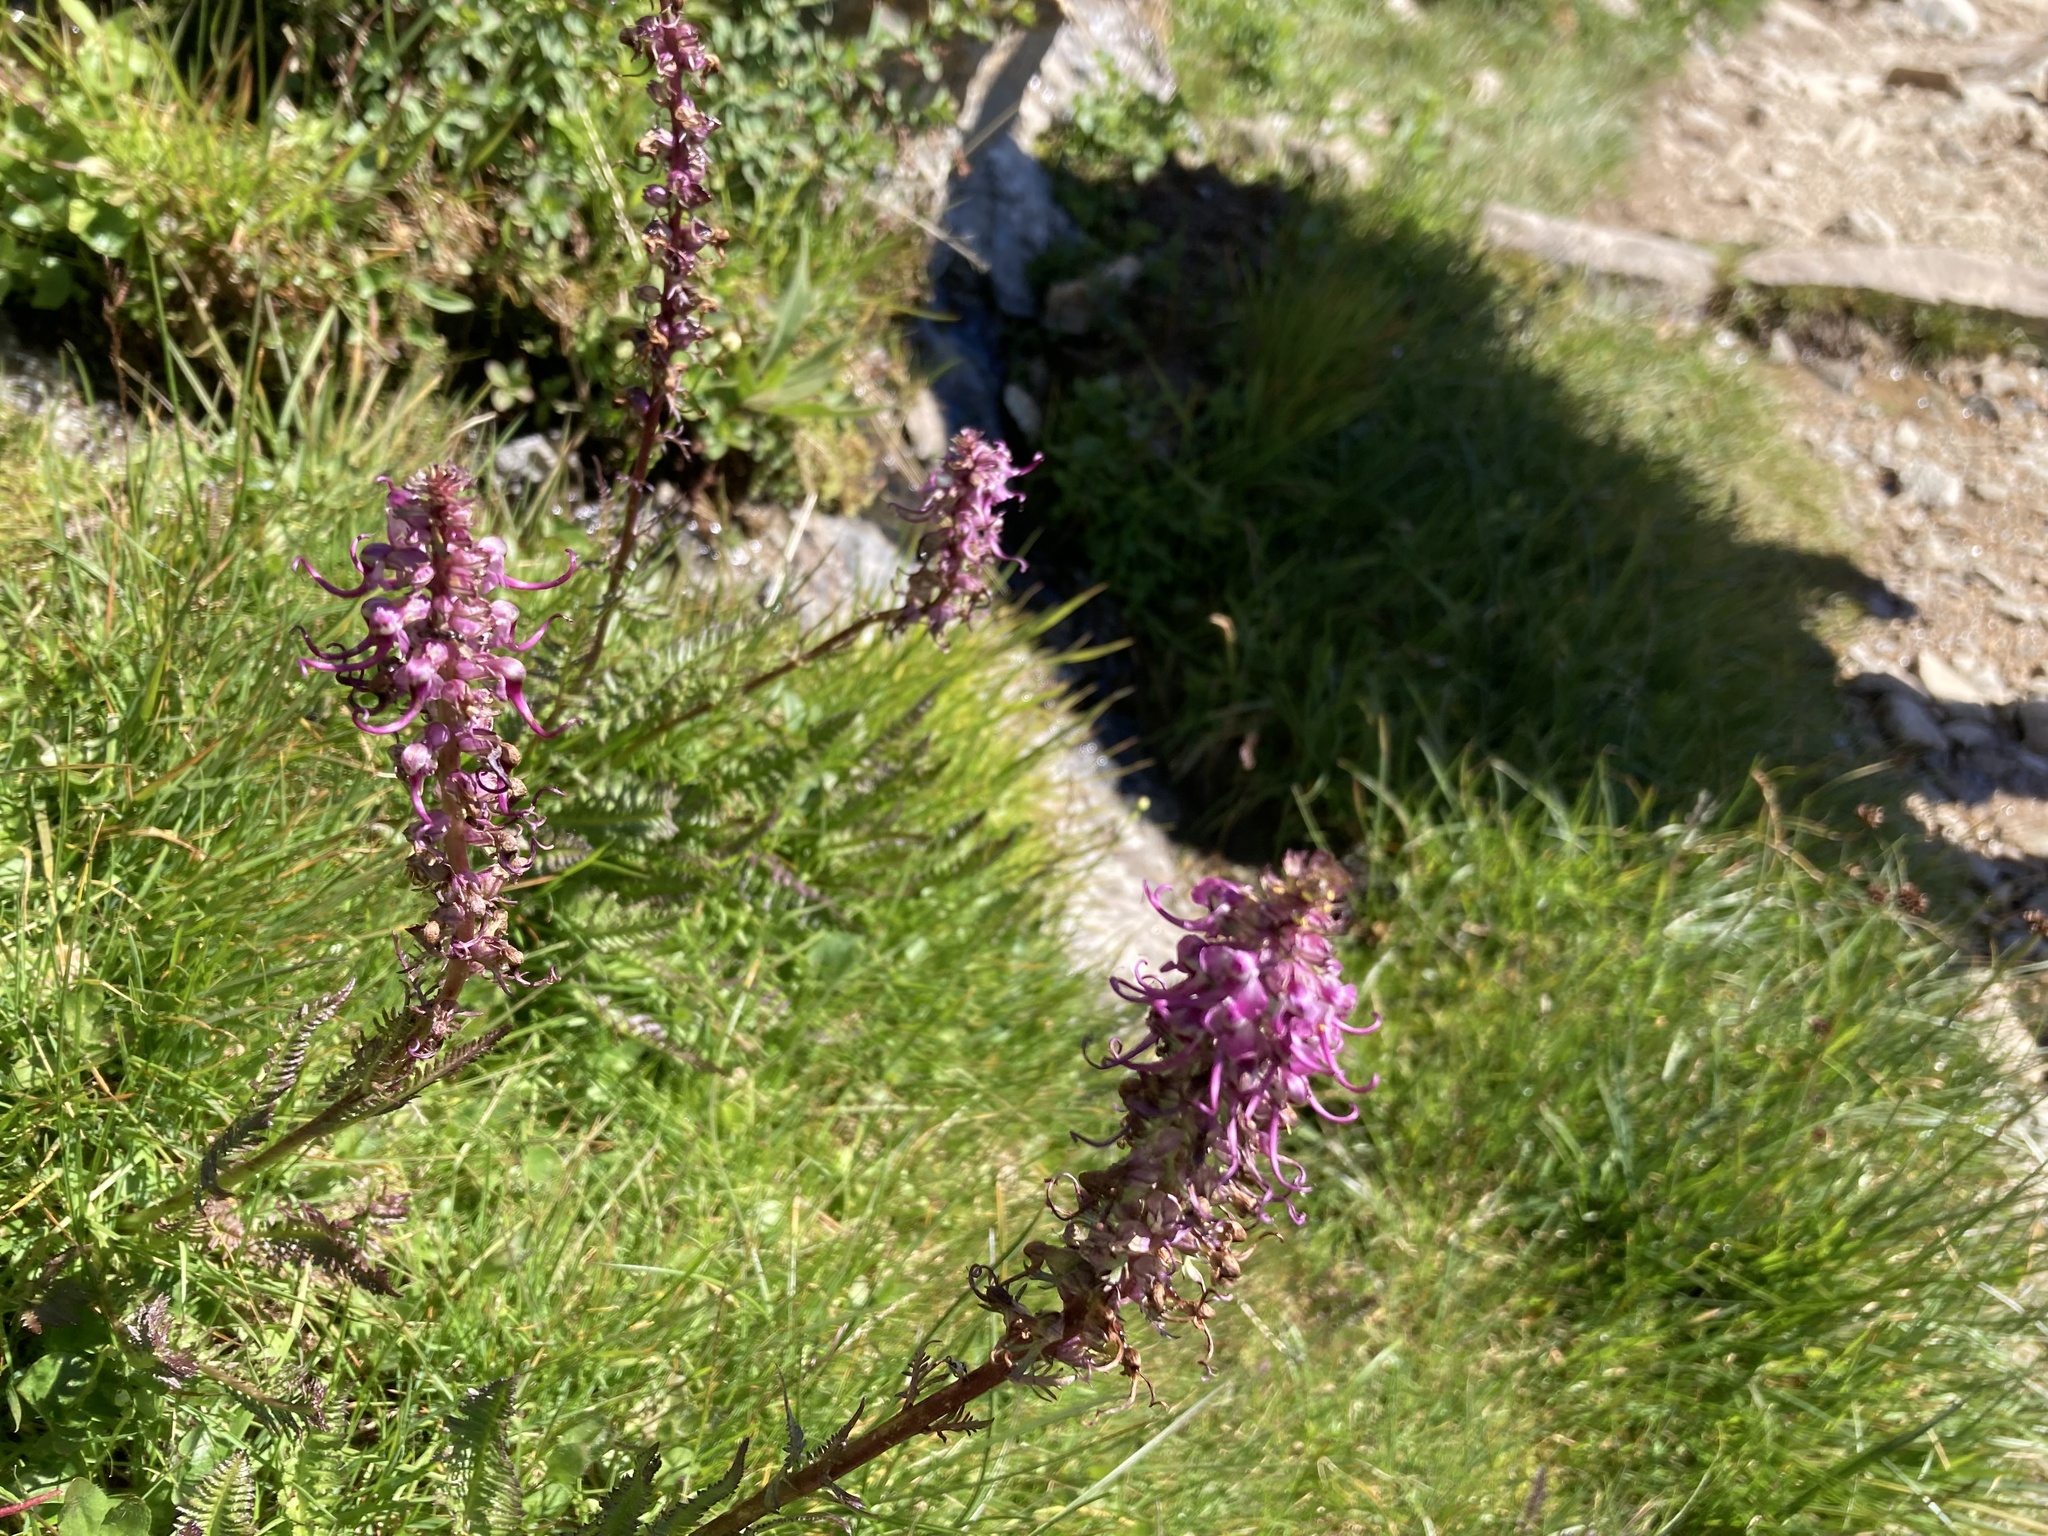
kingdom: Plantae
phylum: Tracheophyta
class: Magnoliopsida
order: Lamiales
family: Orobanchaceae
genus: Pedicularis
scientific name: Pedicularis groenlandica
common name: Elephant's-head
